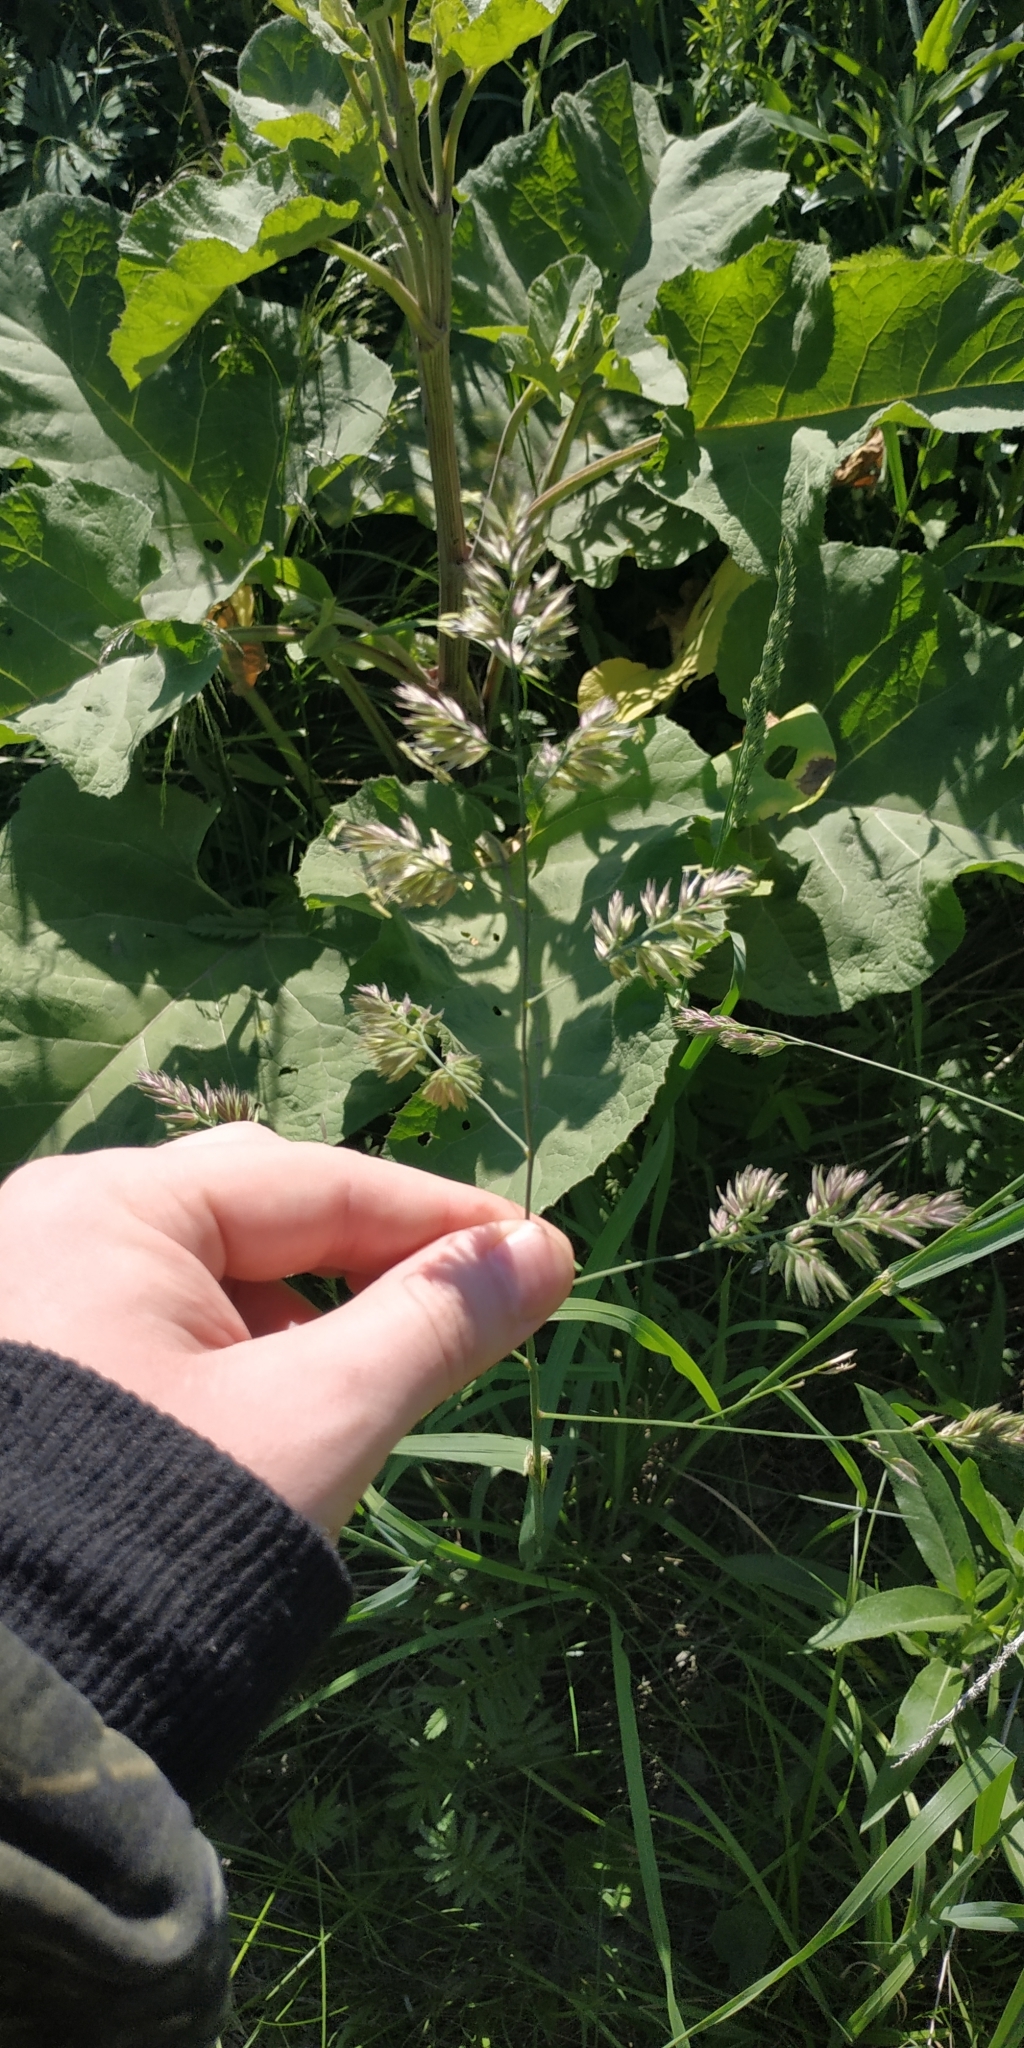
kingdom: Plantae
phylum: Tracheophyta
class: Liliopsida
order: Poales
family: Poaceae
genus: Dactylis
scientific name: Dactylis glomerata
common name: Orchardgrass
